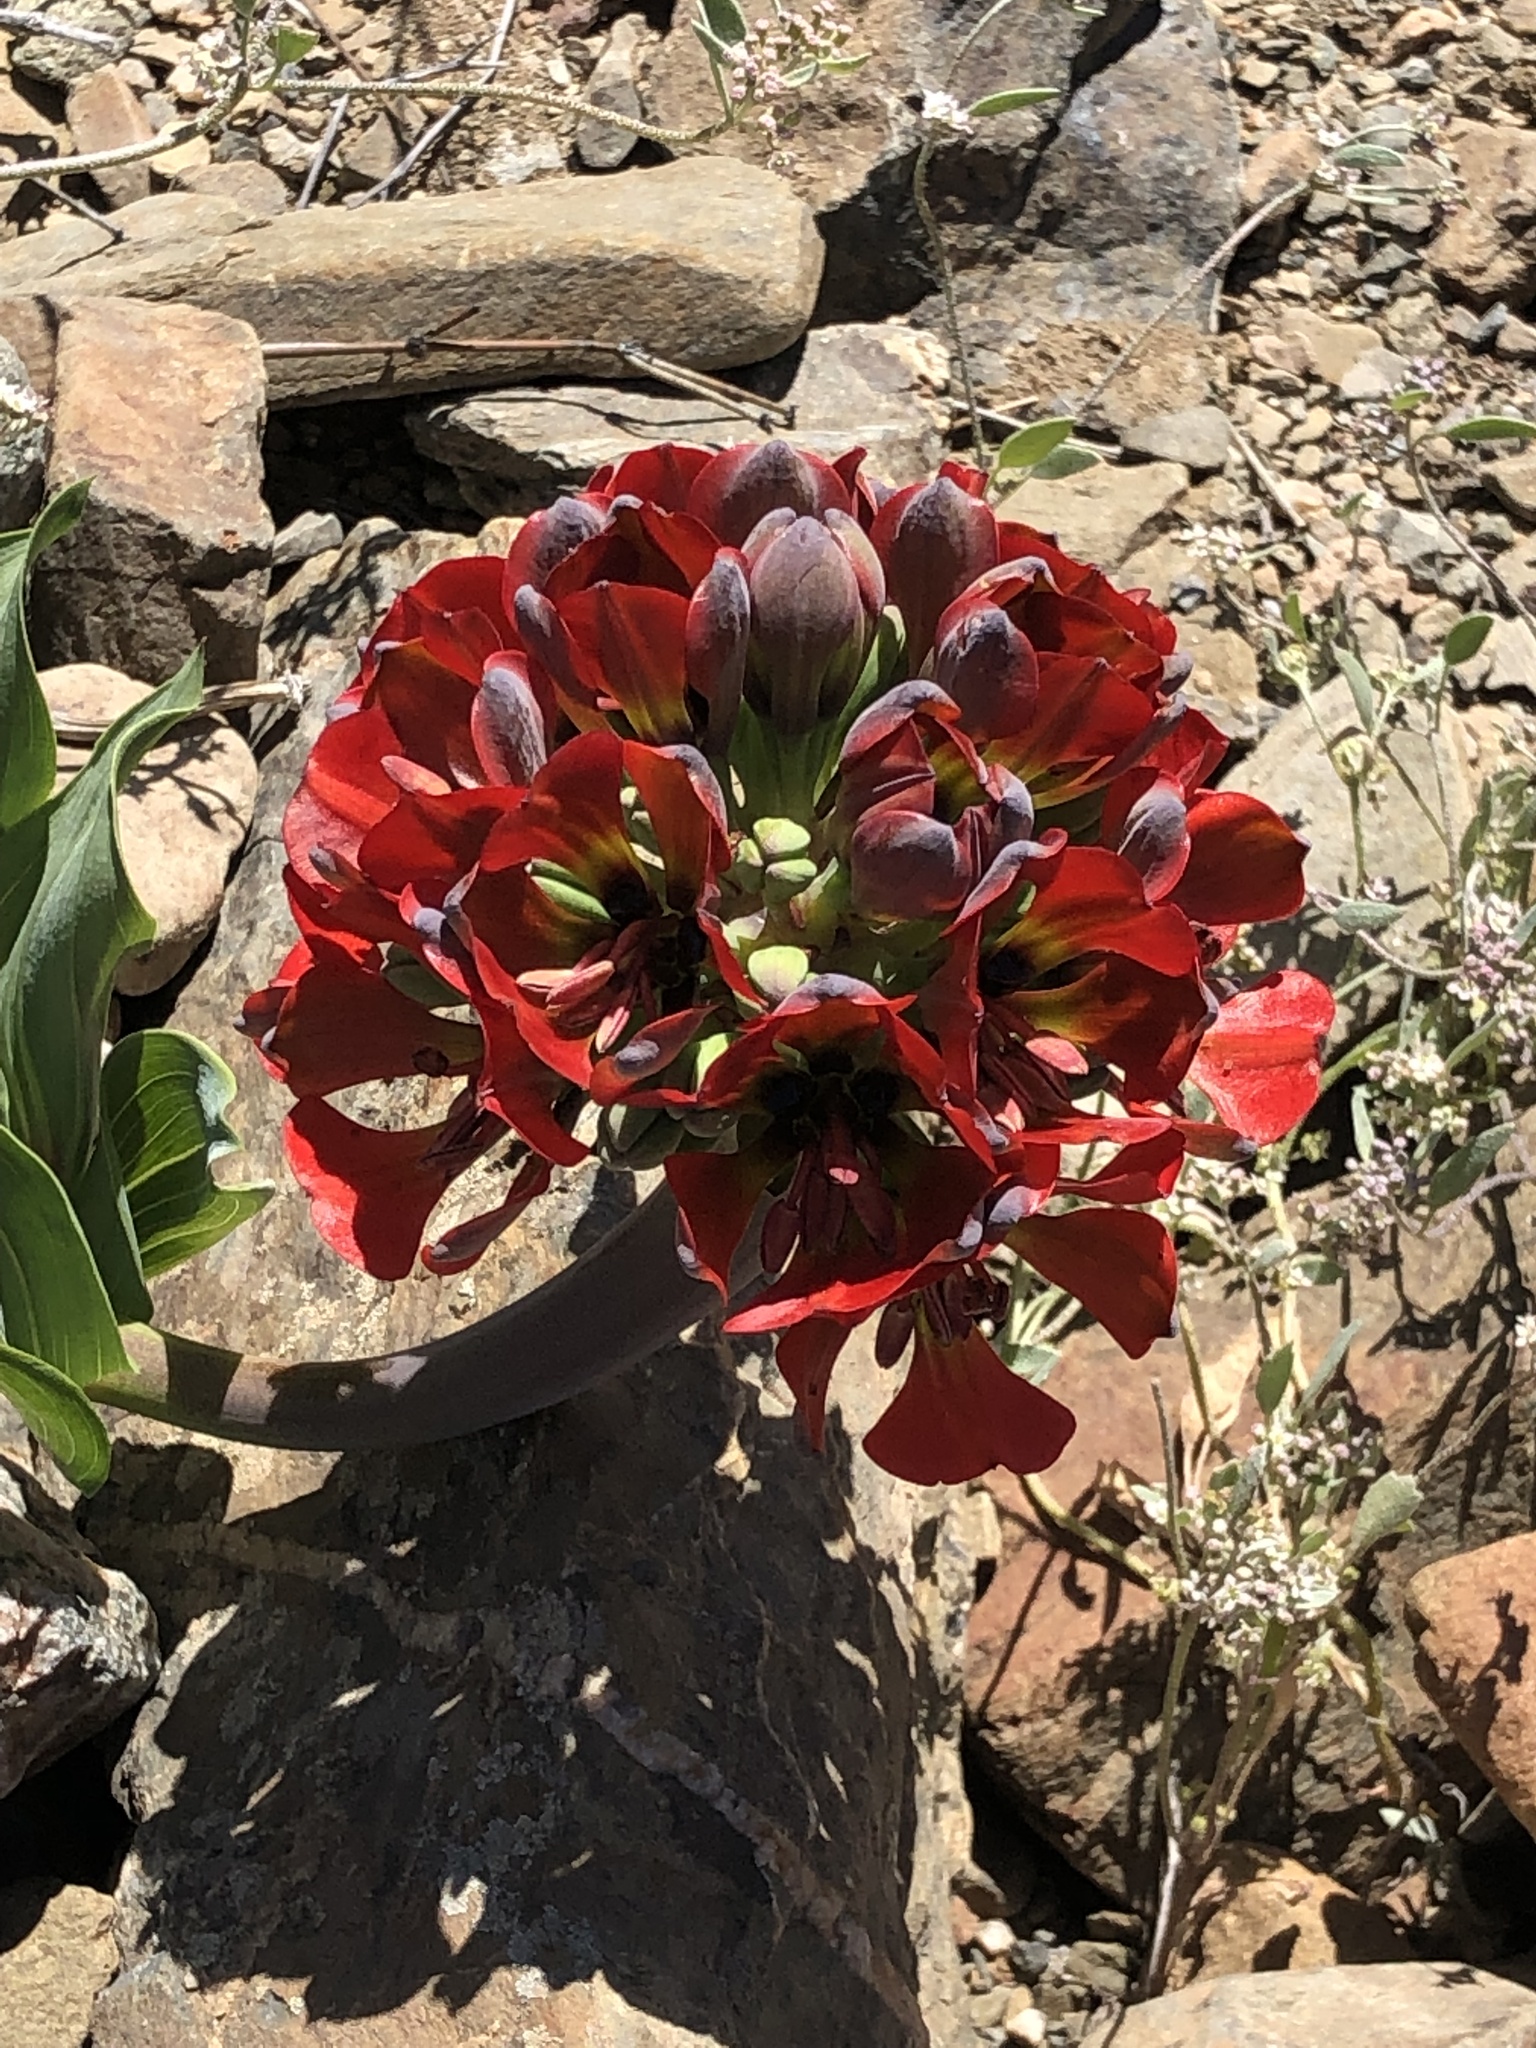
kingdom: Plantae
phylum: Tracheophyta
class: Liliopsida
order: Liliales
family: Alstroemeriaceae
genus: Bomarea
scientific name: Bomarea ovallei
